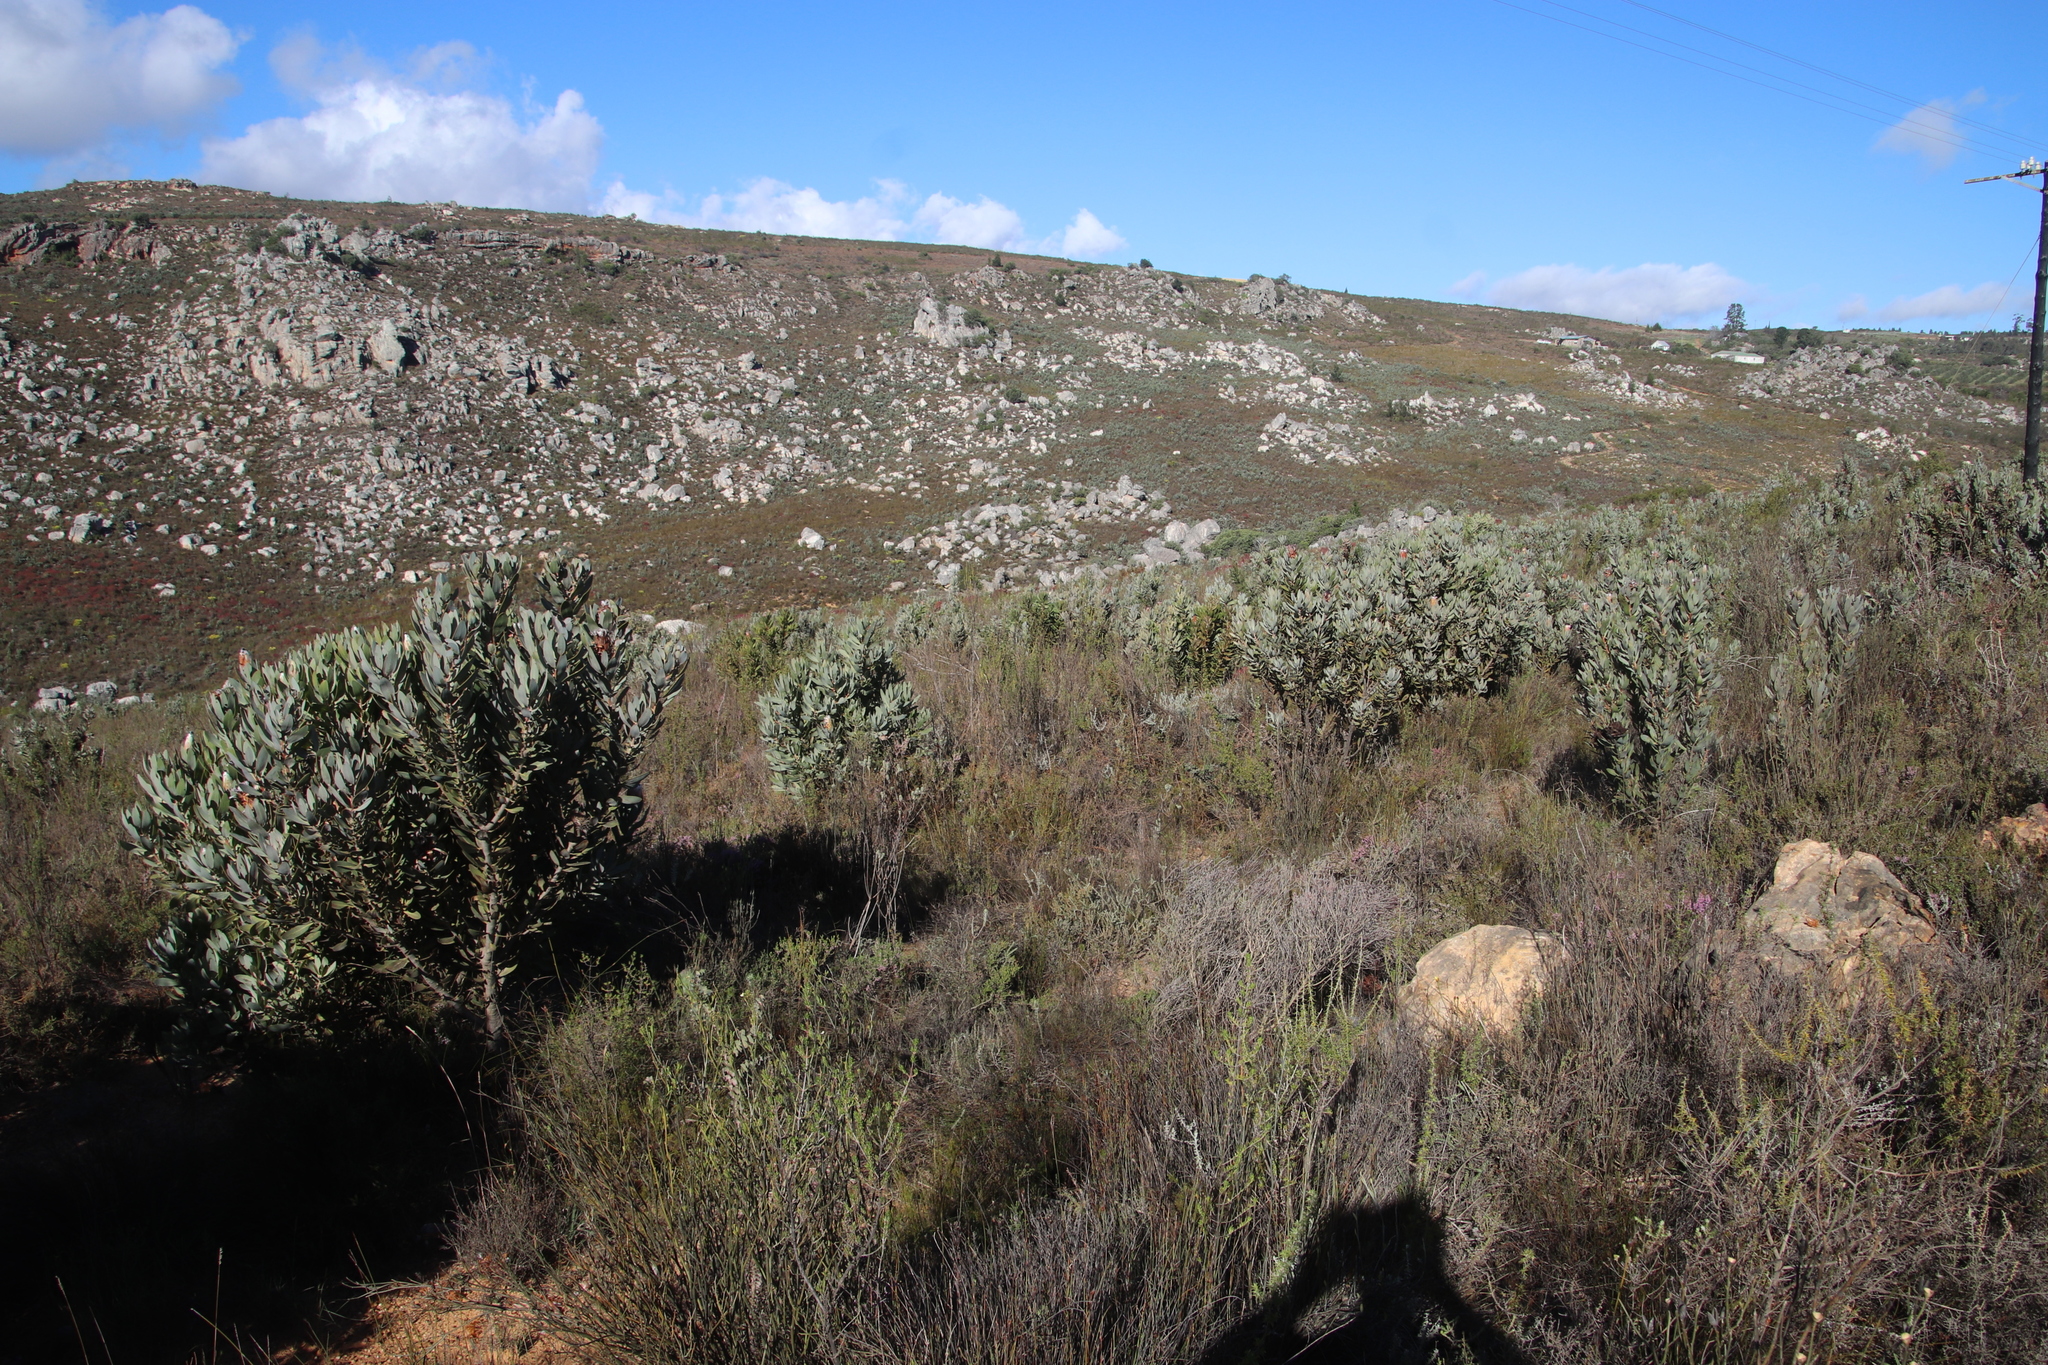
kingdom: Plantae
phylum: Tracheophyta
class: Magnoliopsida
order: Proteales
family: Proteaceae
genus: Protea
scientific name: Protea laurifolia
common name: Grey-leaf sugarbsh
